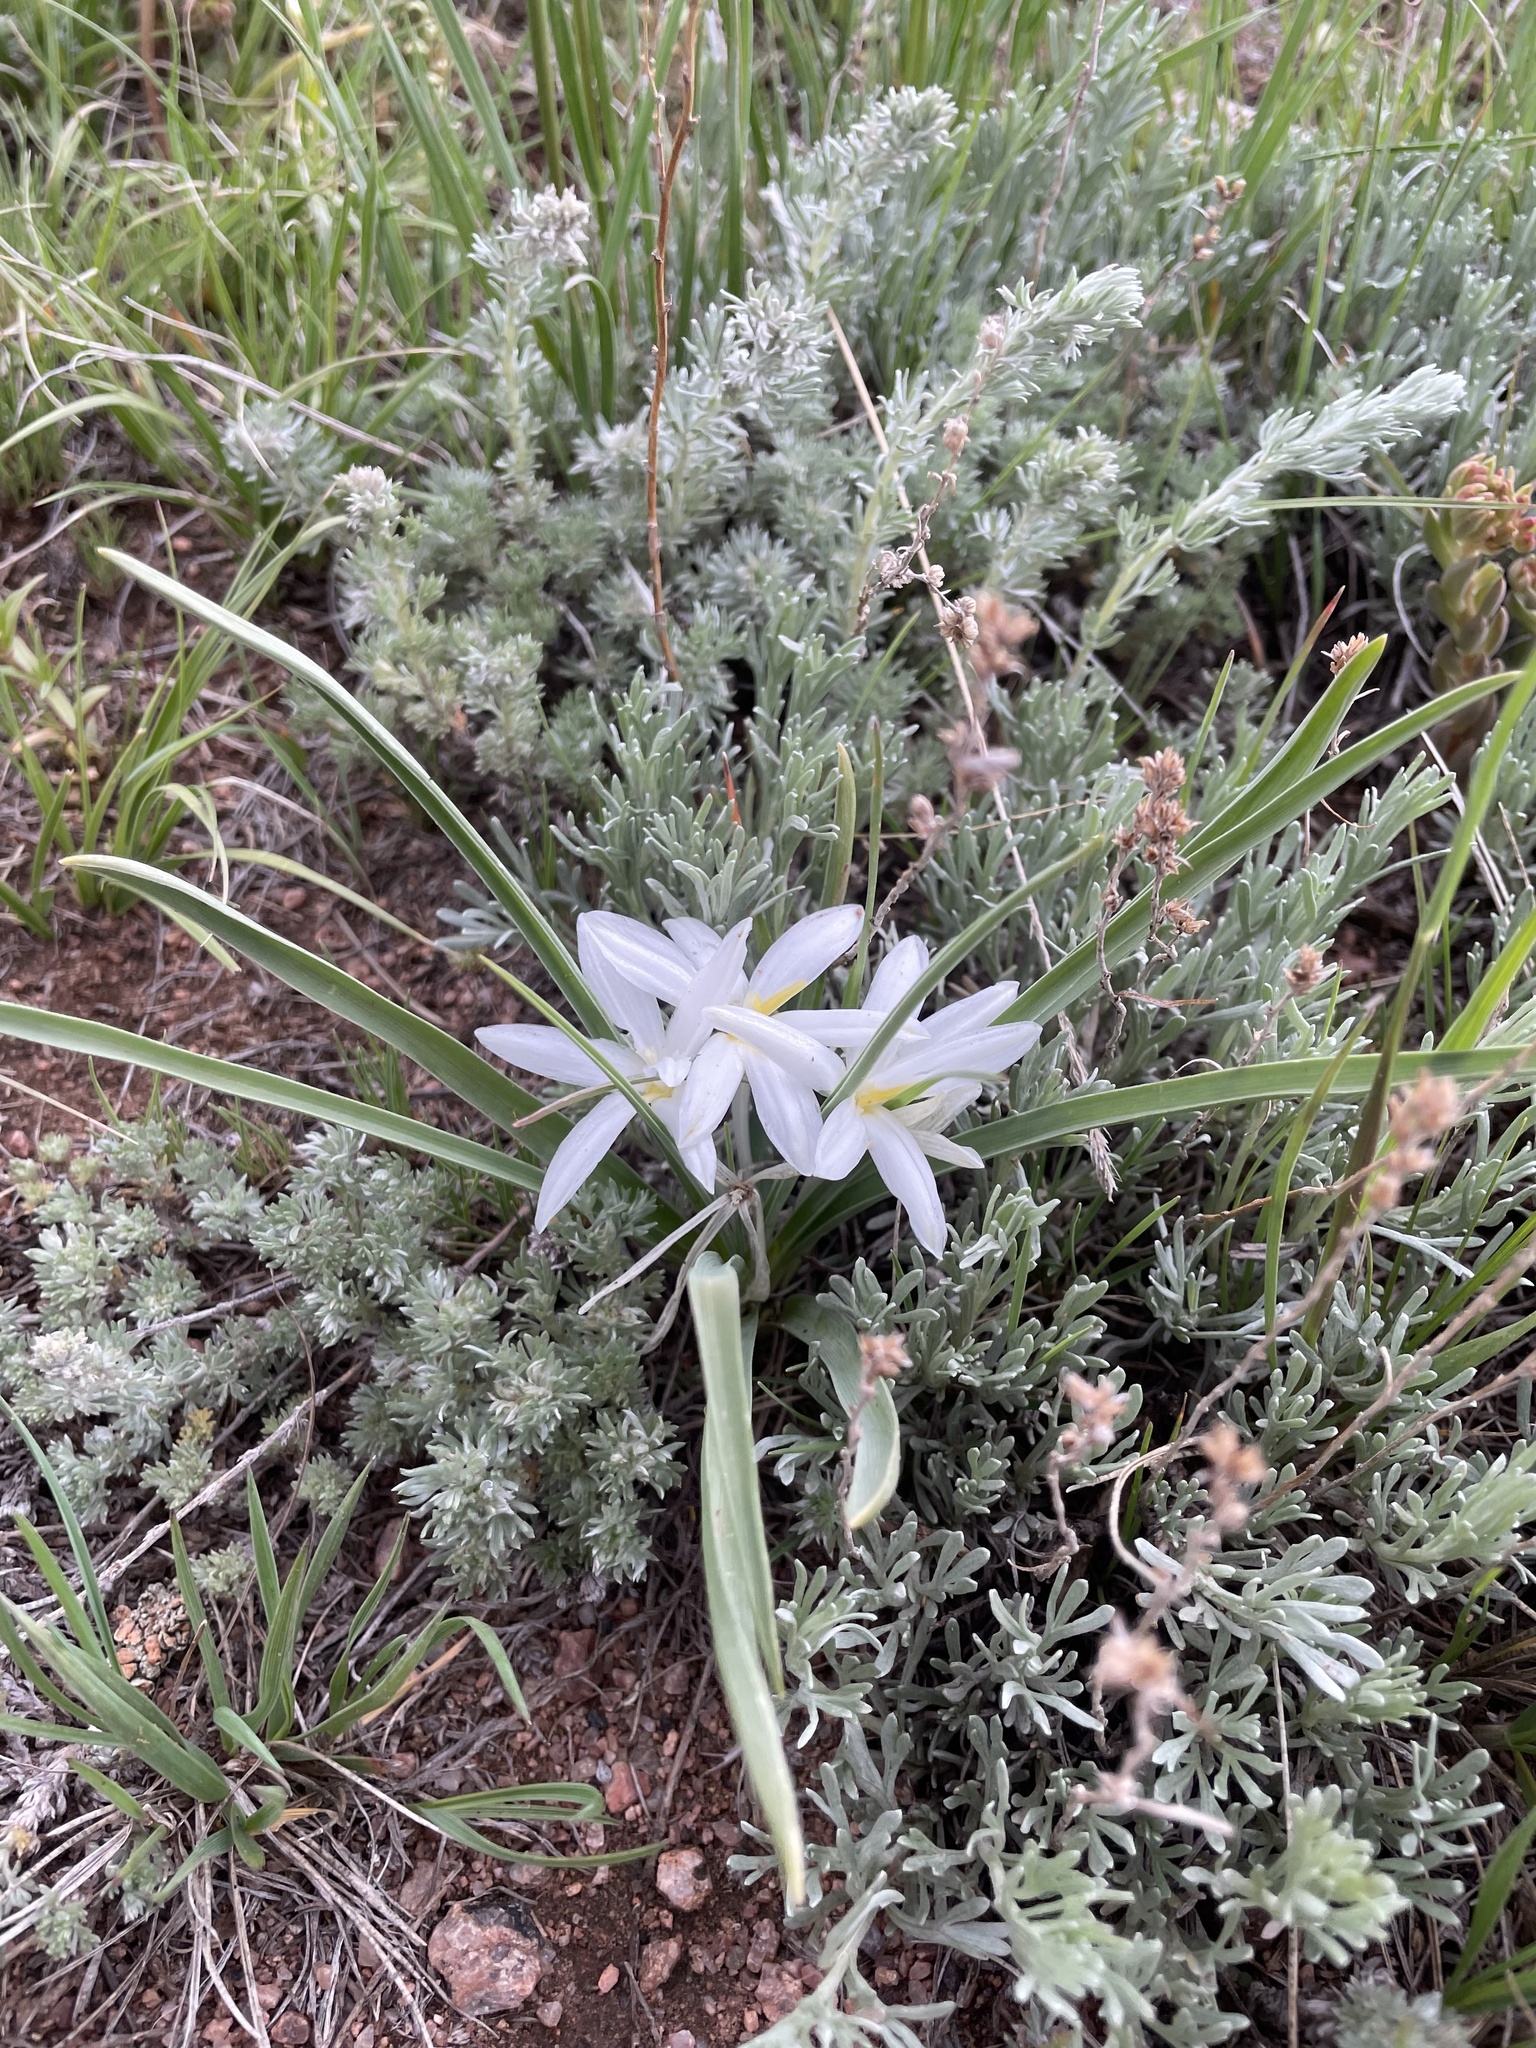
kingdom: Plantae
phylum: Tracheophyta
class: Liliopsida
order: Asparagales
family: Asparagaceae
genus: Leucocrinum
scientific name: Leucocrinum montanum
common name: Mountain-lily
